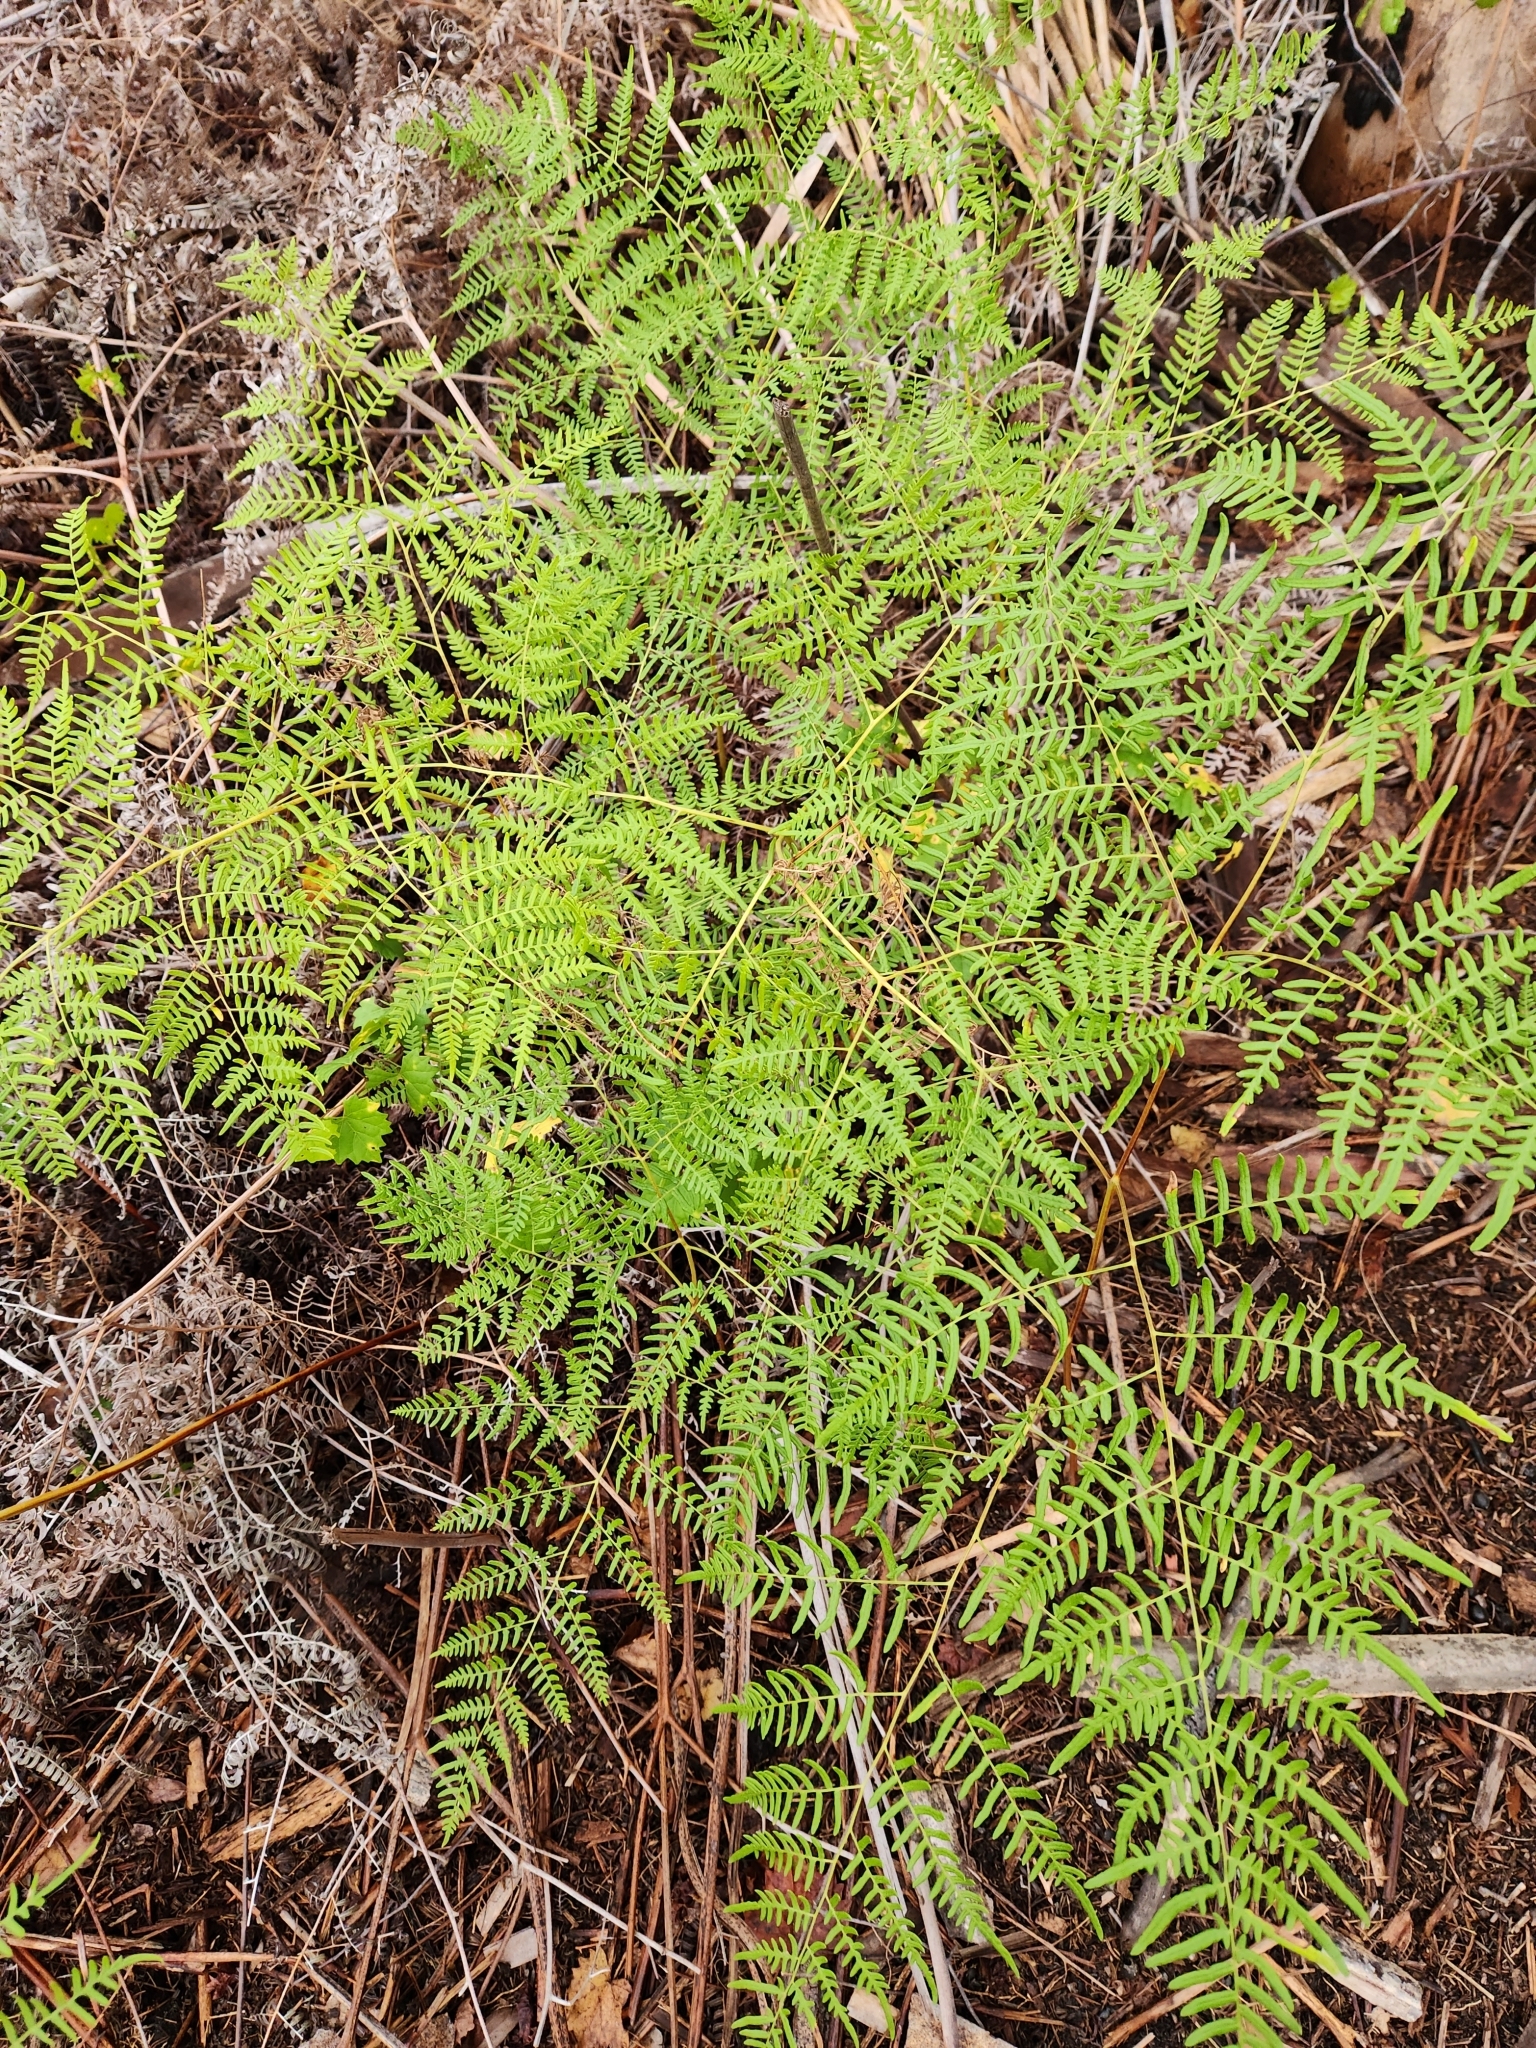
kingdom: Plantae
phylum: Tracheophyta
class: Polypodiopsida
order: Polypodiales
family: Dennstaedtiaceae
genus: Pteridium
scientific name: Pteridium
